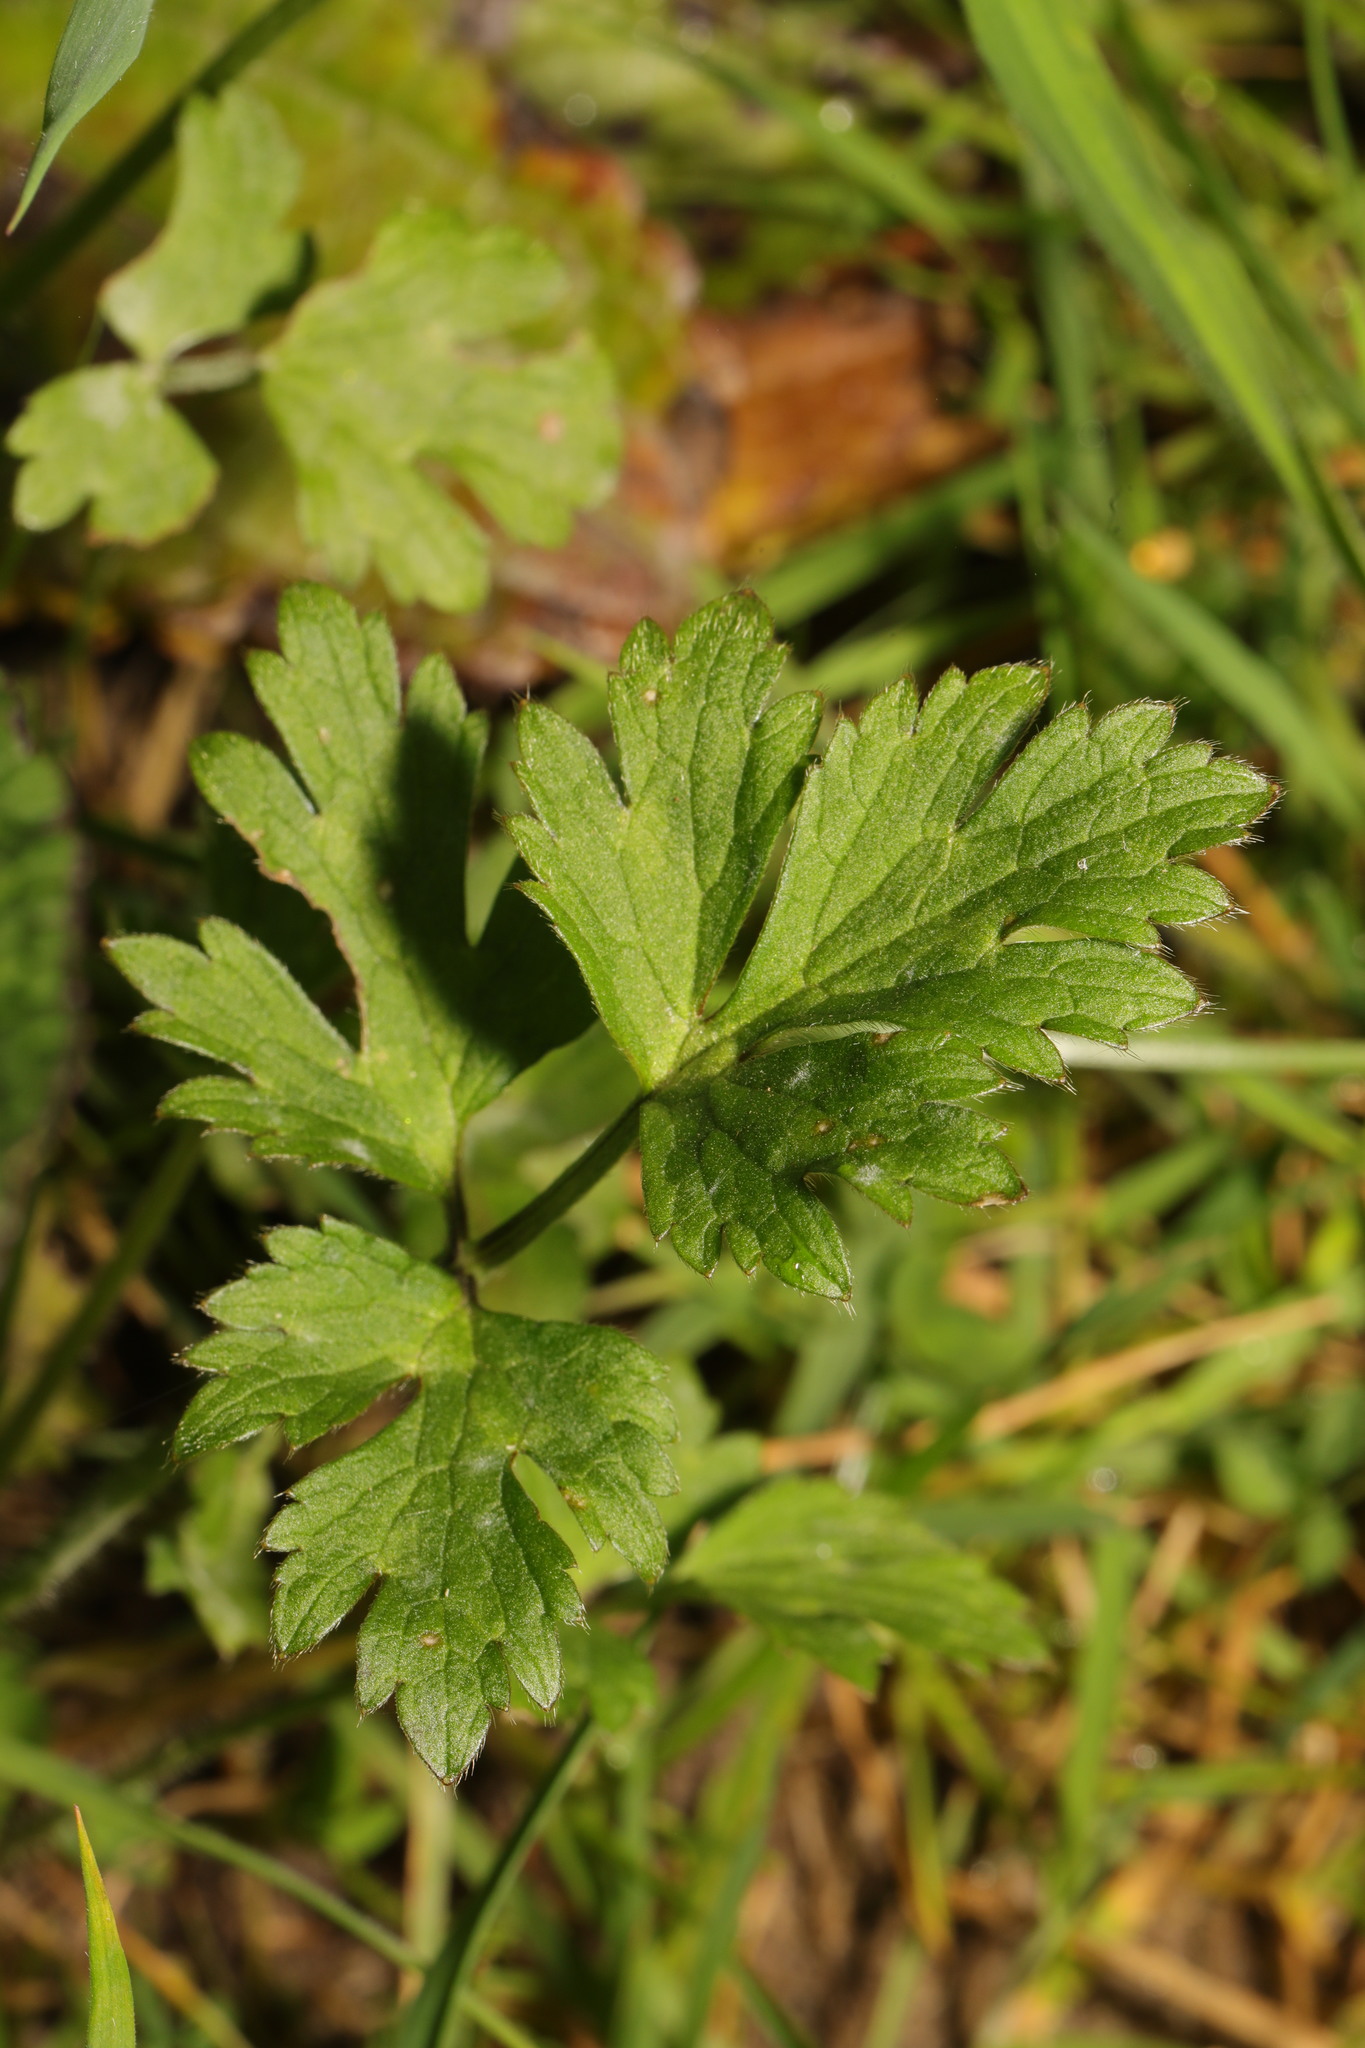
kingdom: Plantae
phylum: Tracheophyta
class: Magnoliopsida
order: Ranunculales
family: Ranunculaceae
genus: Ranunculus
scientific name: Ranunculus repens
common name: Creeping buttercup
